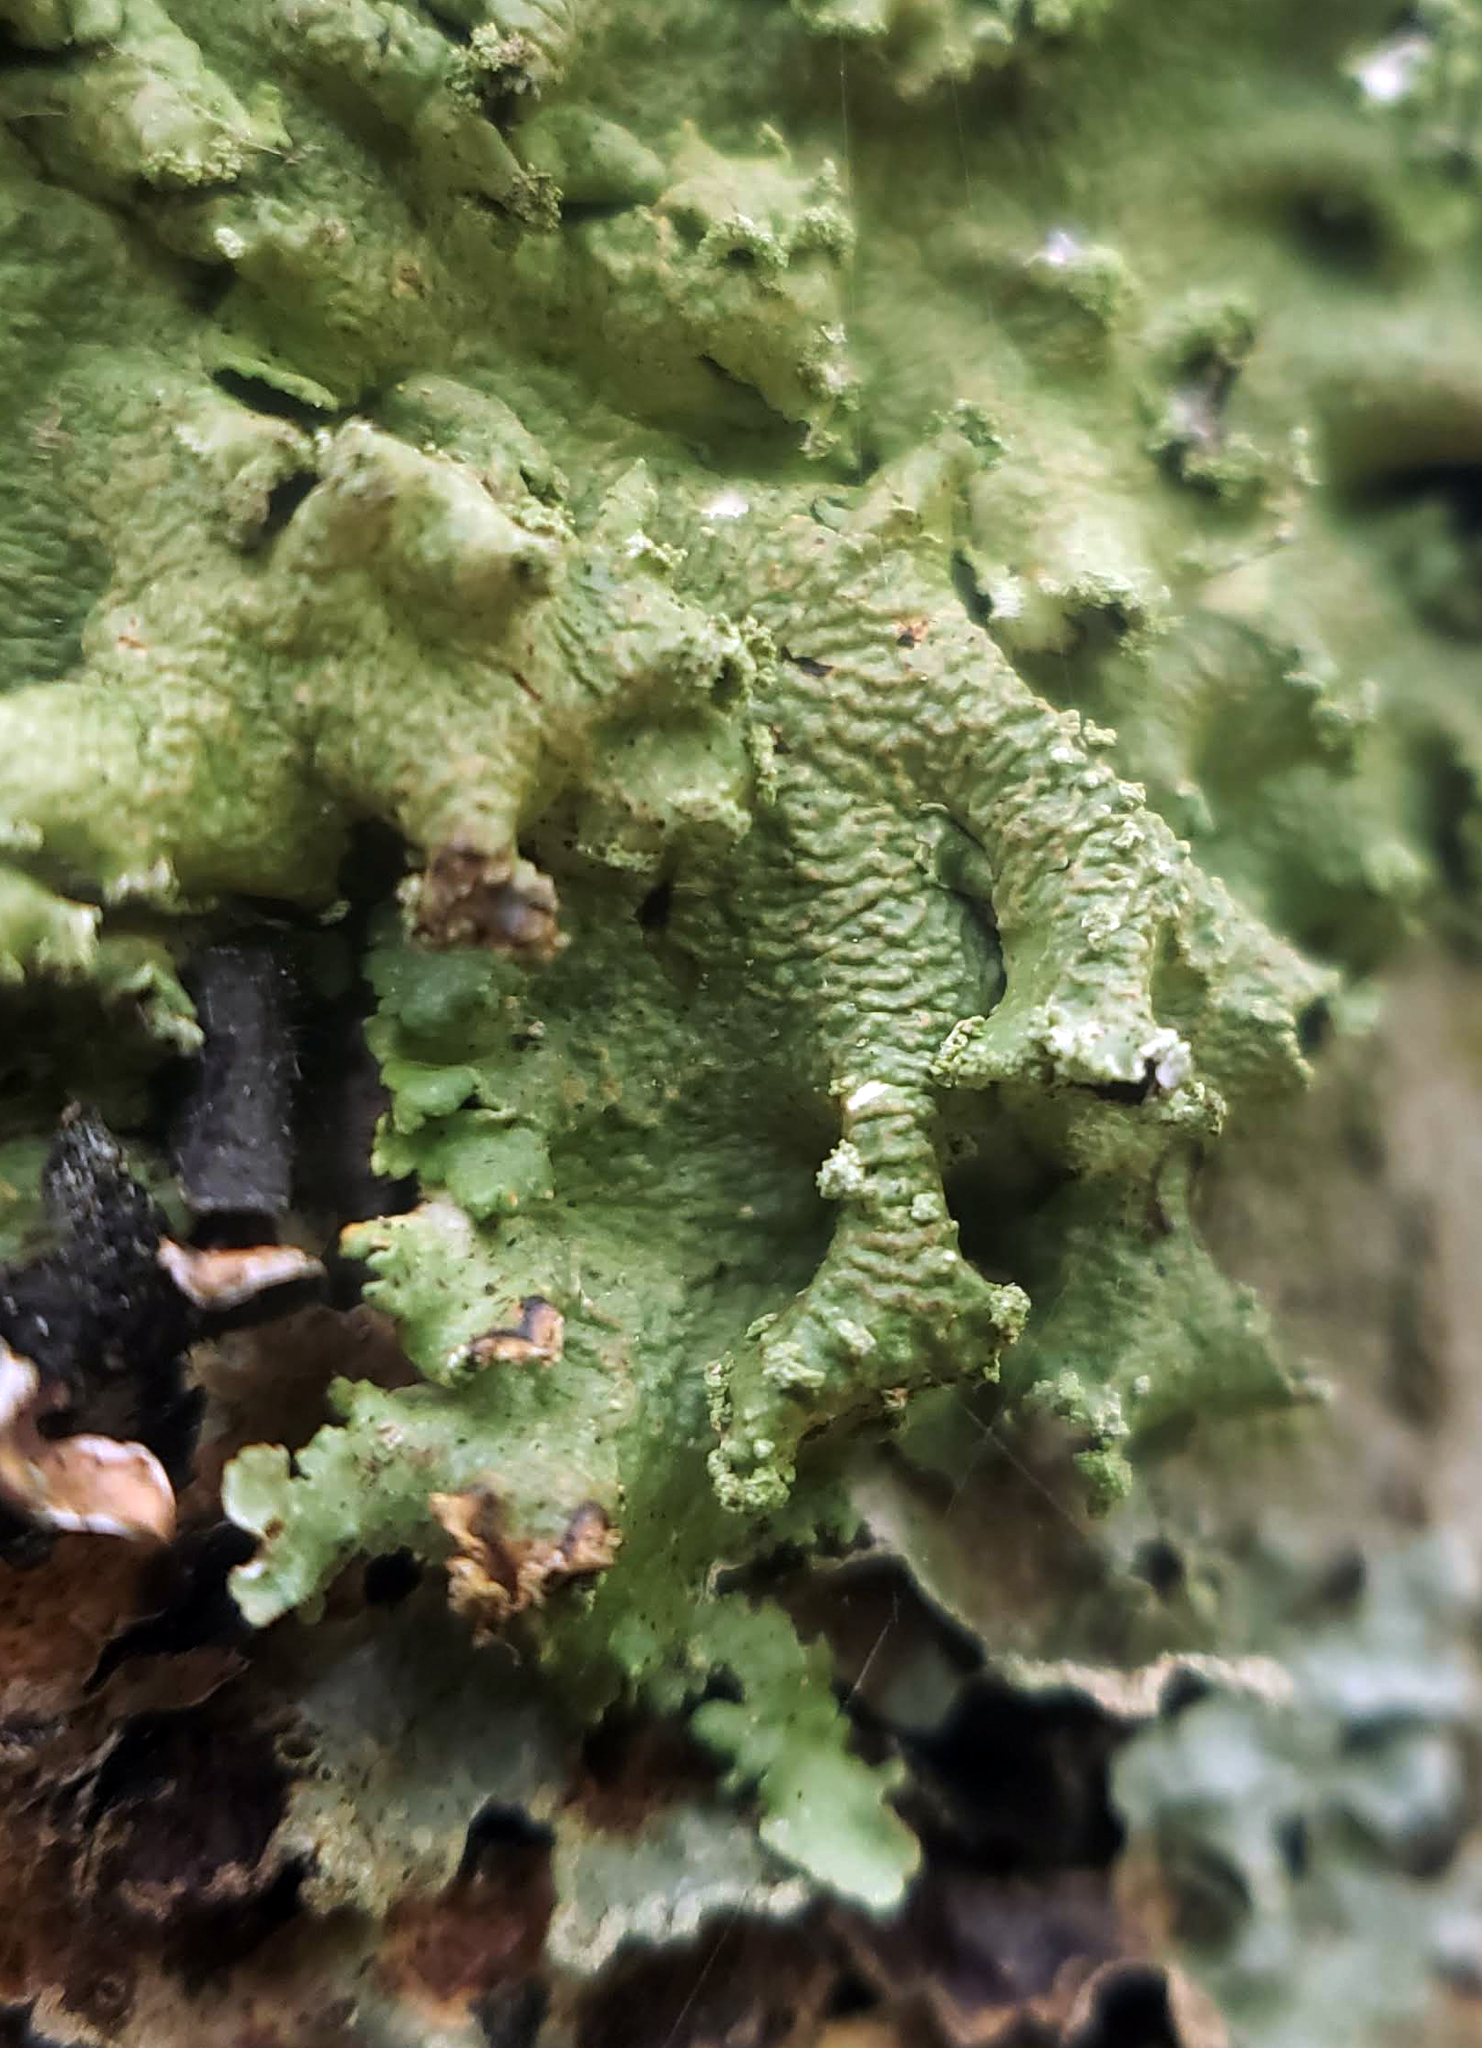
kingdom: Fungi
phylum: Ascomycota
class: Lecanoromycetes
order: Lecanorales
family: Parmeliaceae
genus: Flavopunctelia
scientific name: Flavopunctelia flaventior
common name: Speckled greenshield
